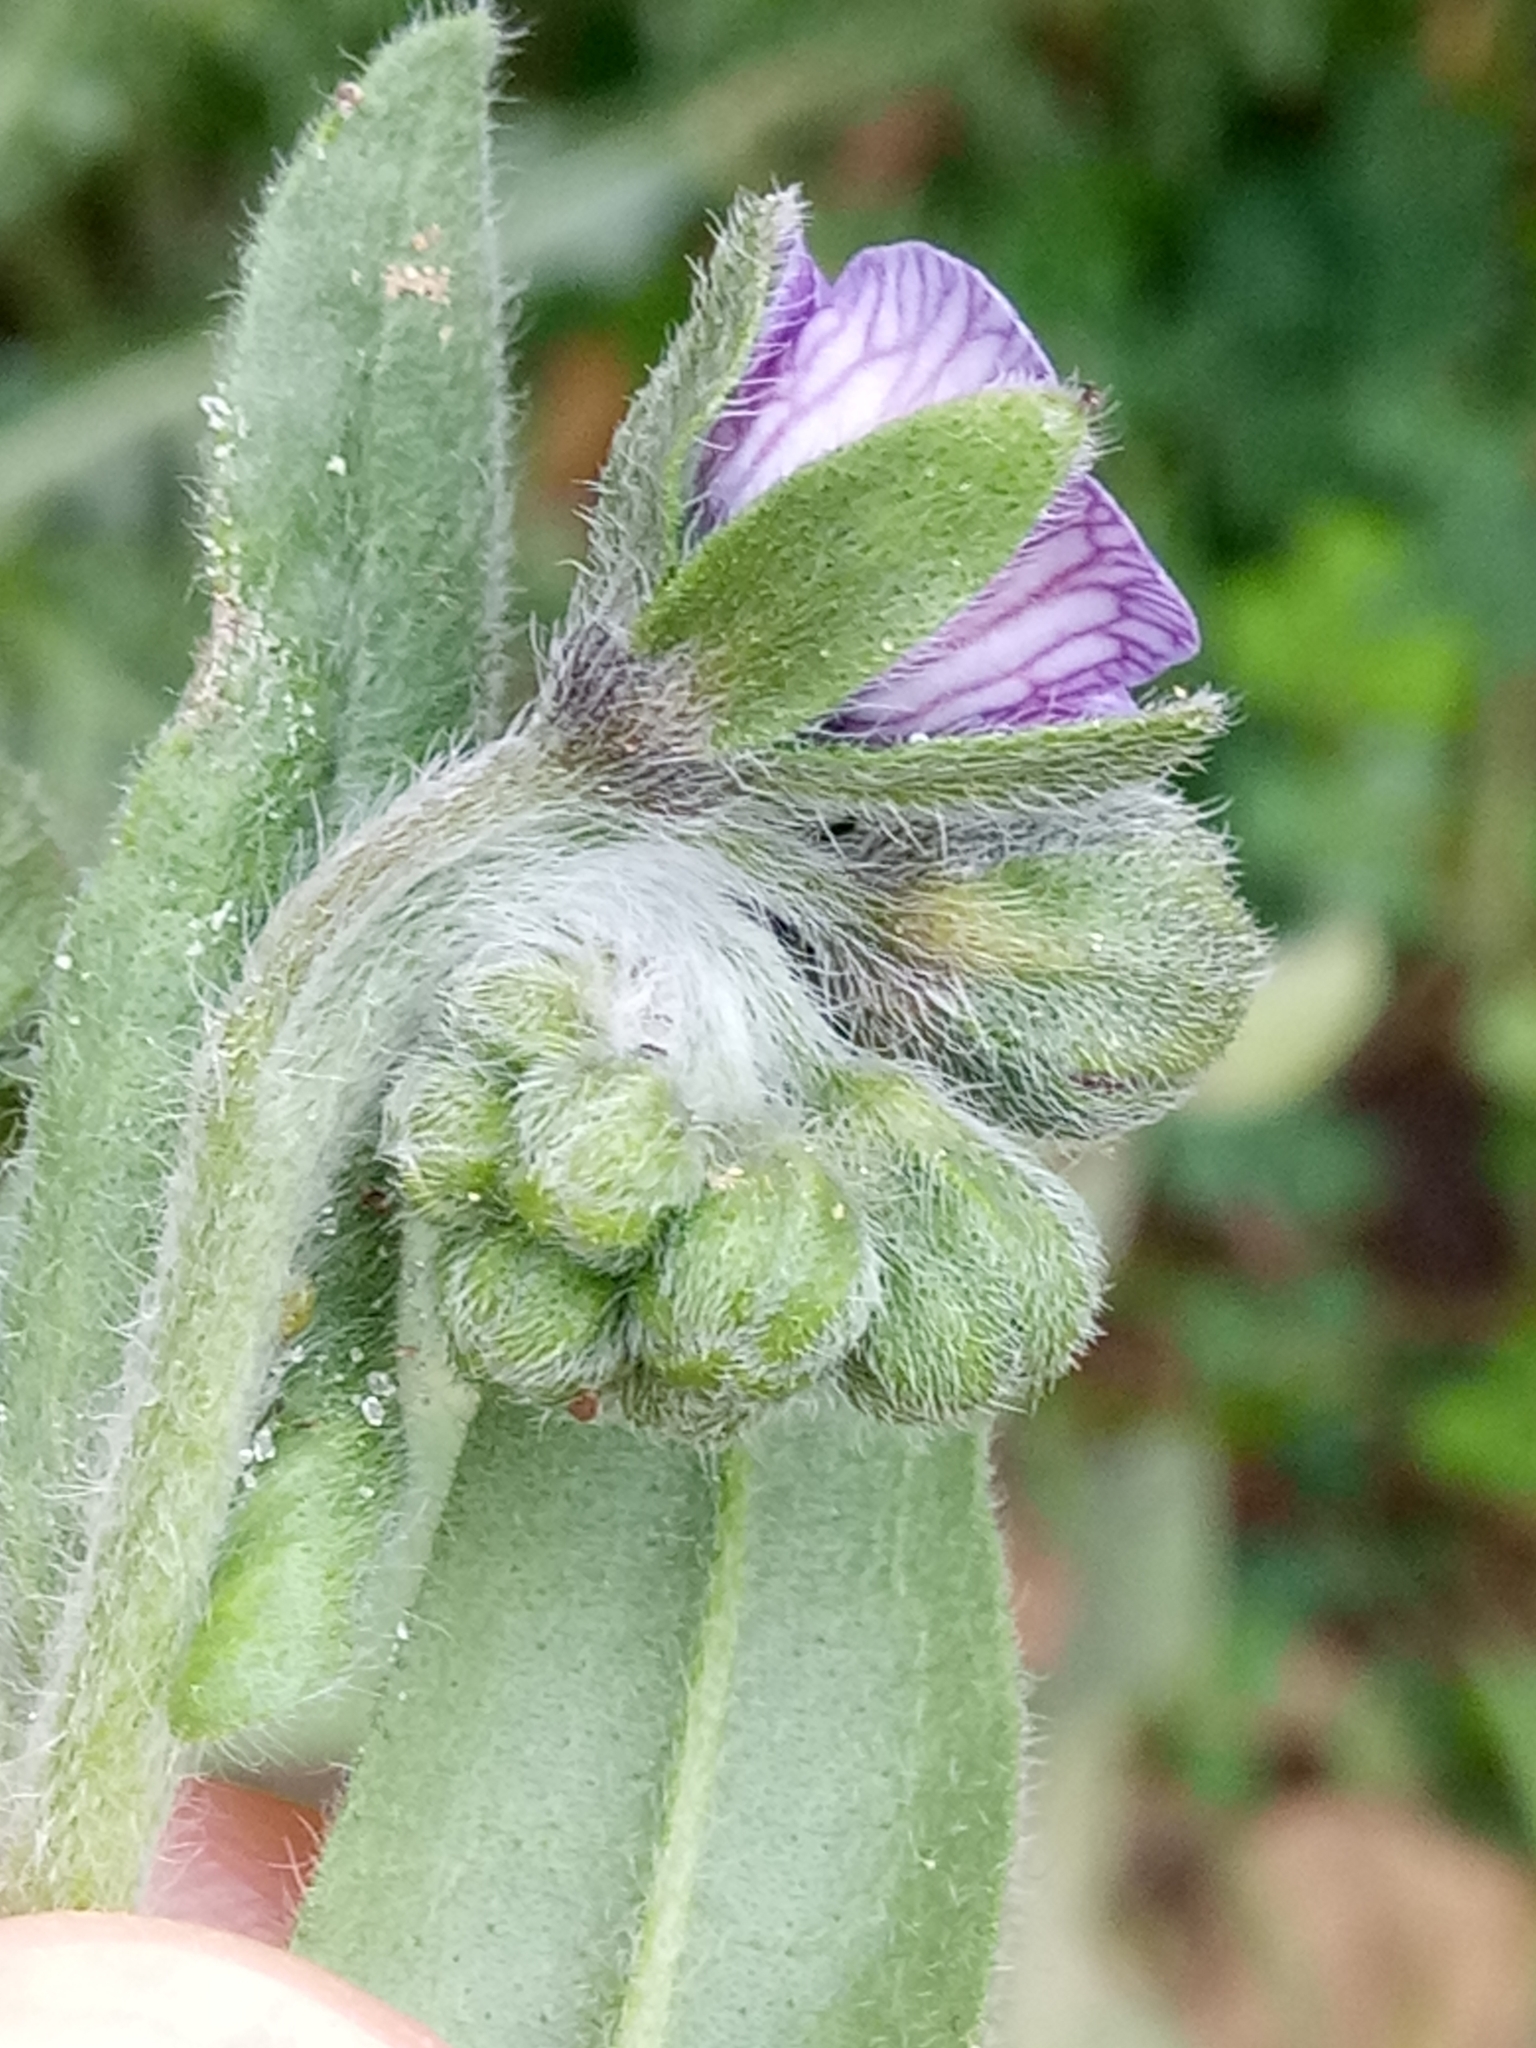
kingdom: Plantae
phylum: Tracheophyta
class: Magnoliopsida
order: Boraginales
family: Boraginaceae
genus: Cynoglossum
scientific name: Cynoglossum creticum
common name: Blue hound's tongue
